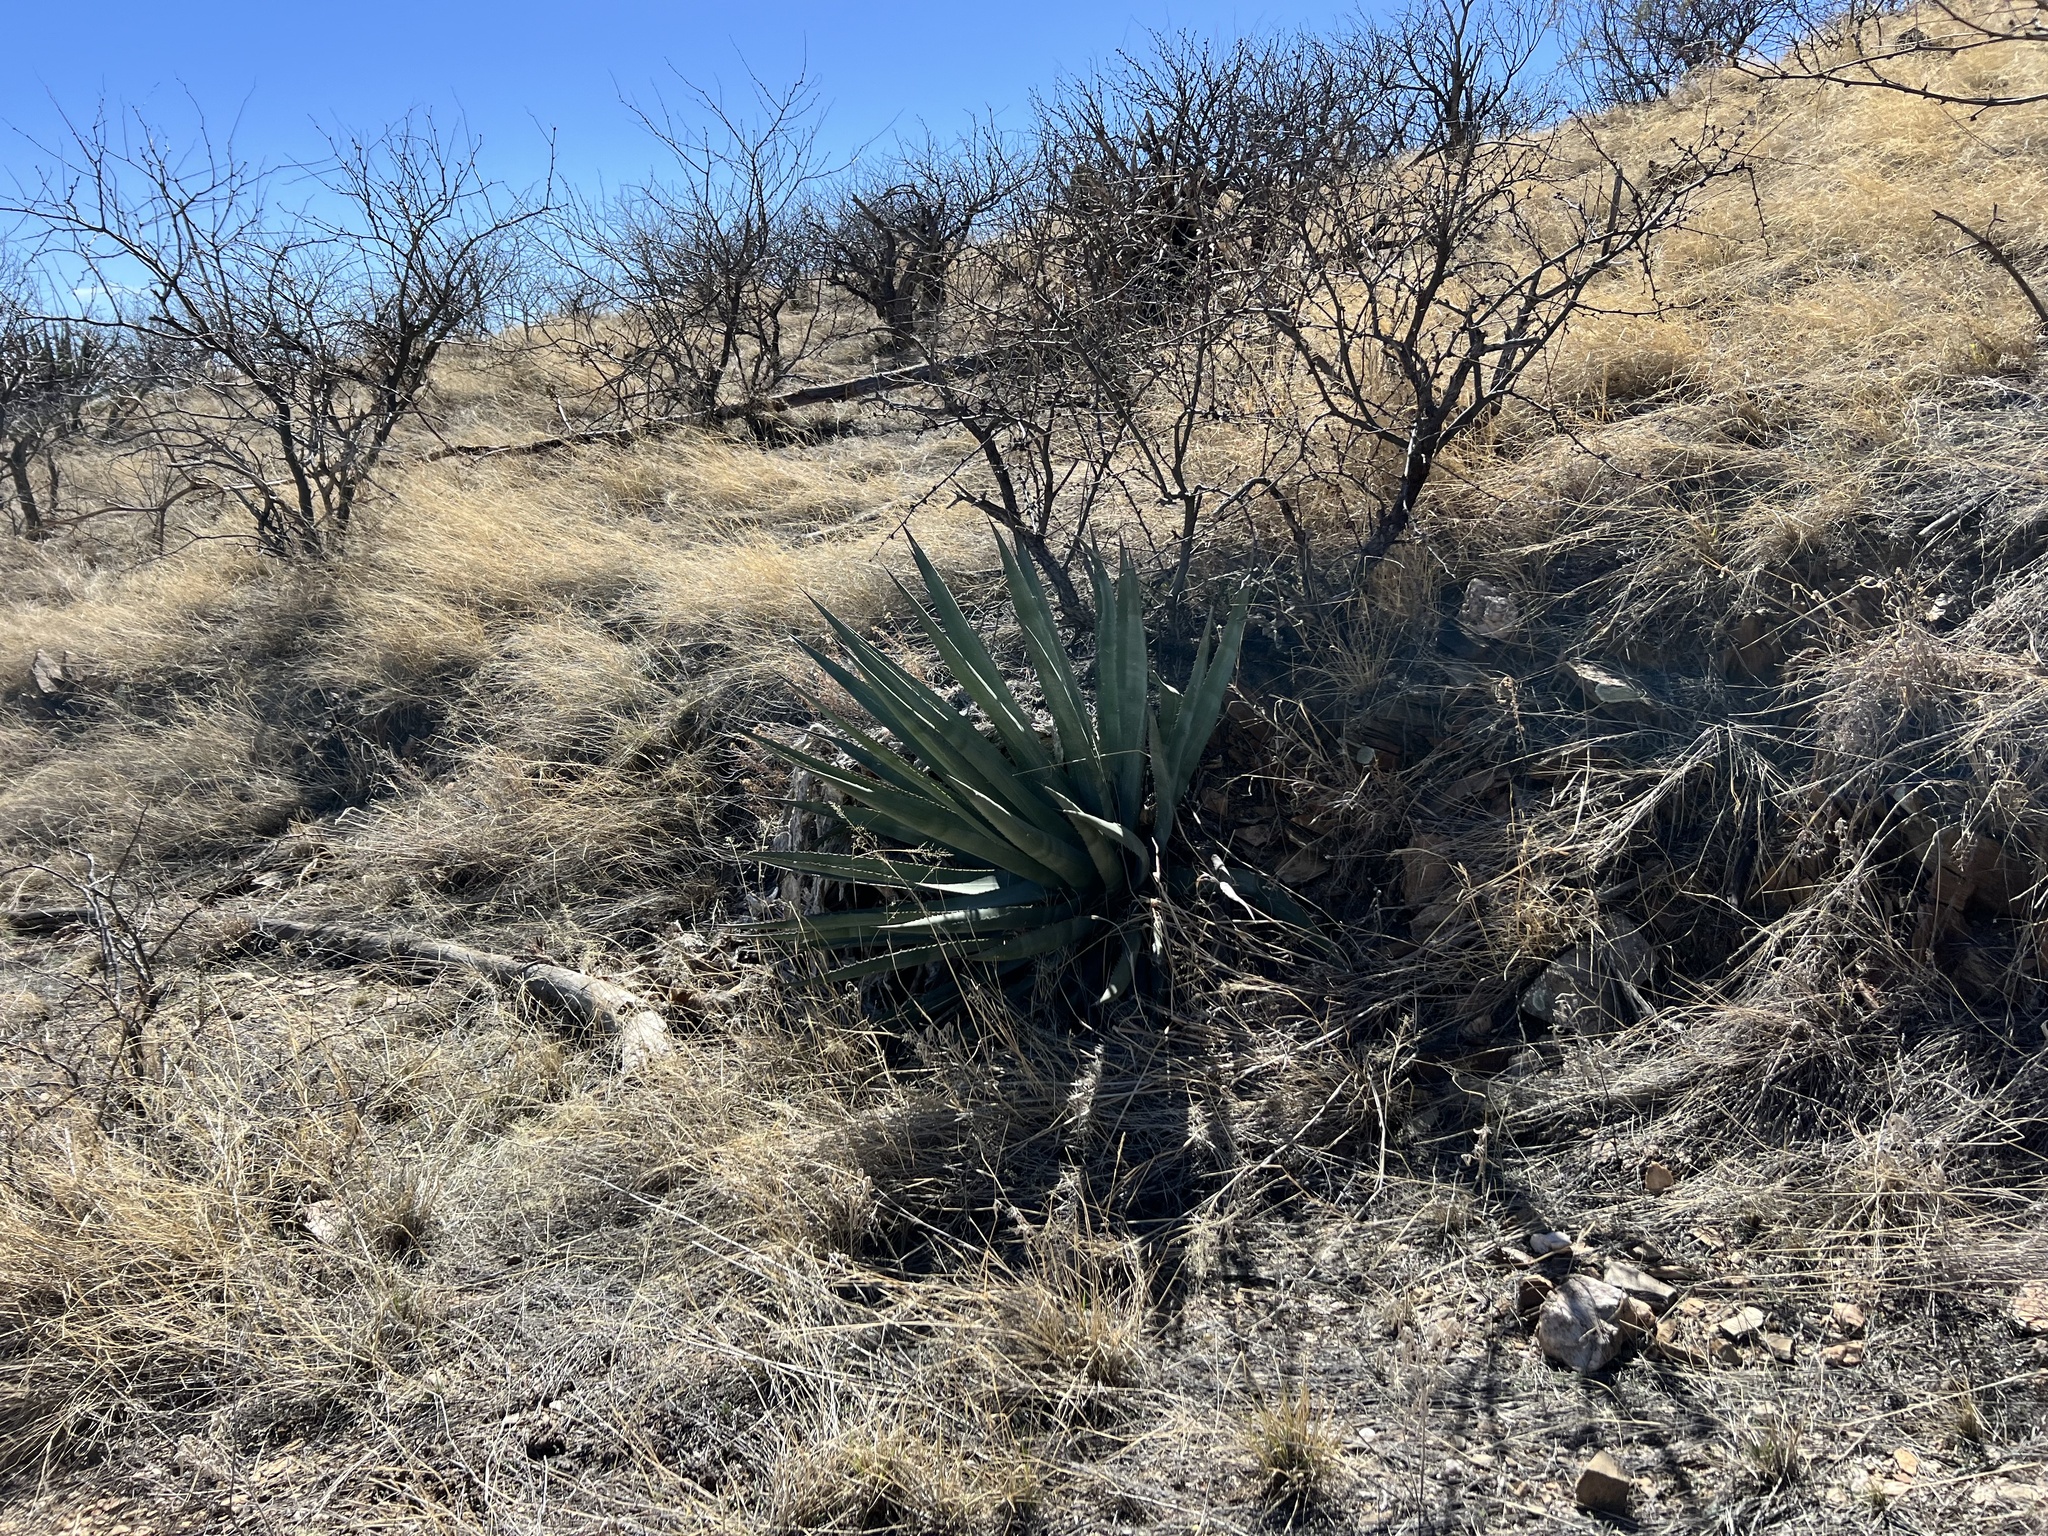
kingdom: Plantae
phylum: Tracheophyta
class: Liliopsida
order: Asparagales
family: Asparagaceae
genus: Agave
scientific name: Agave palmeri
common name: Palmer agave
